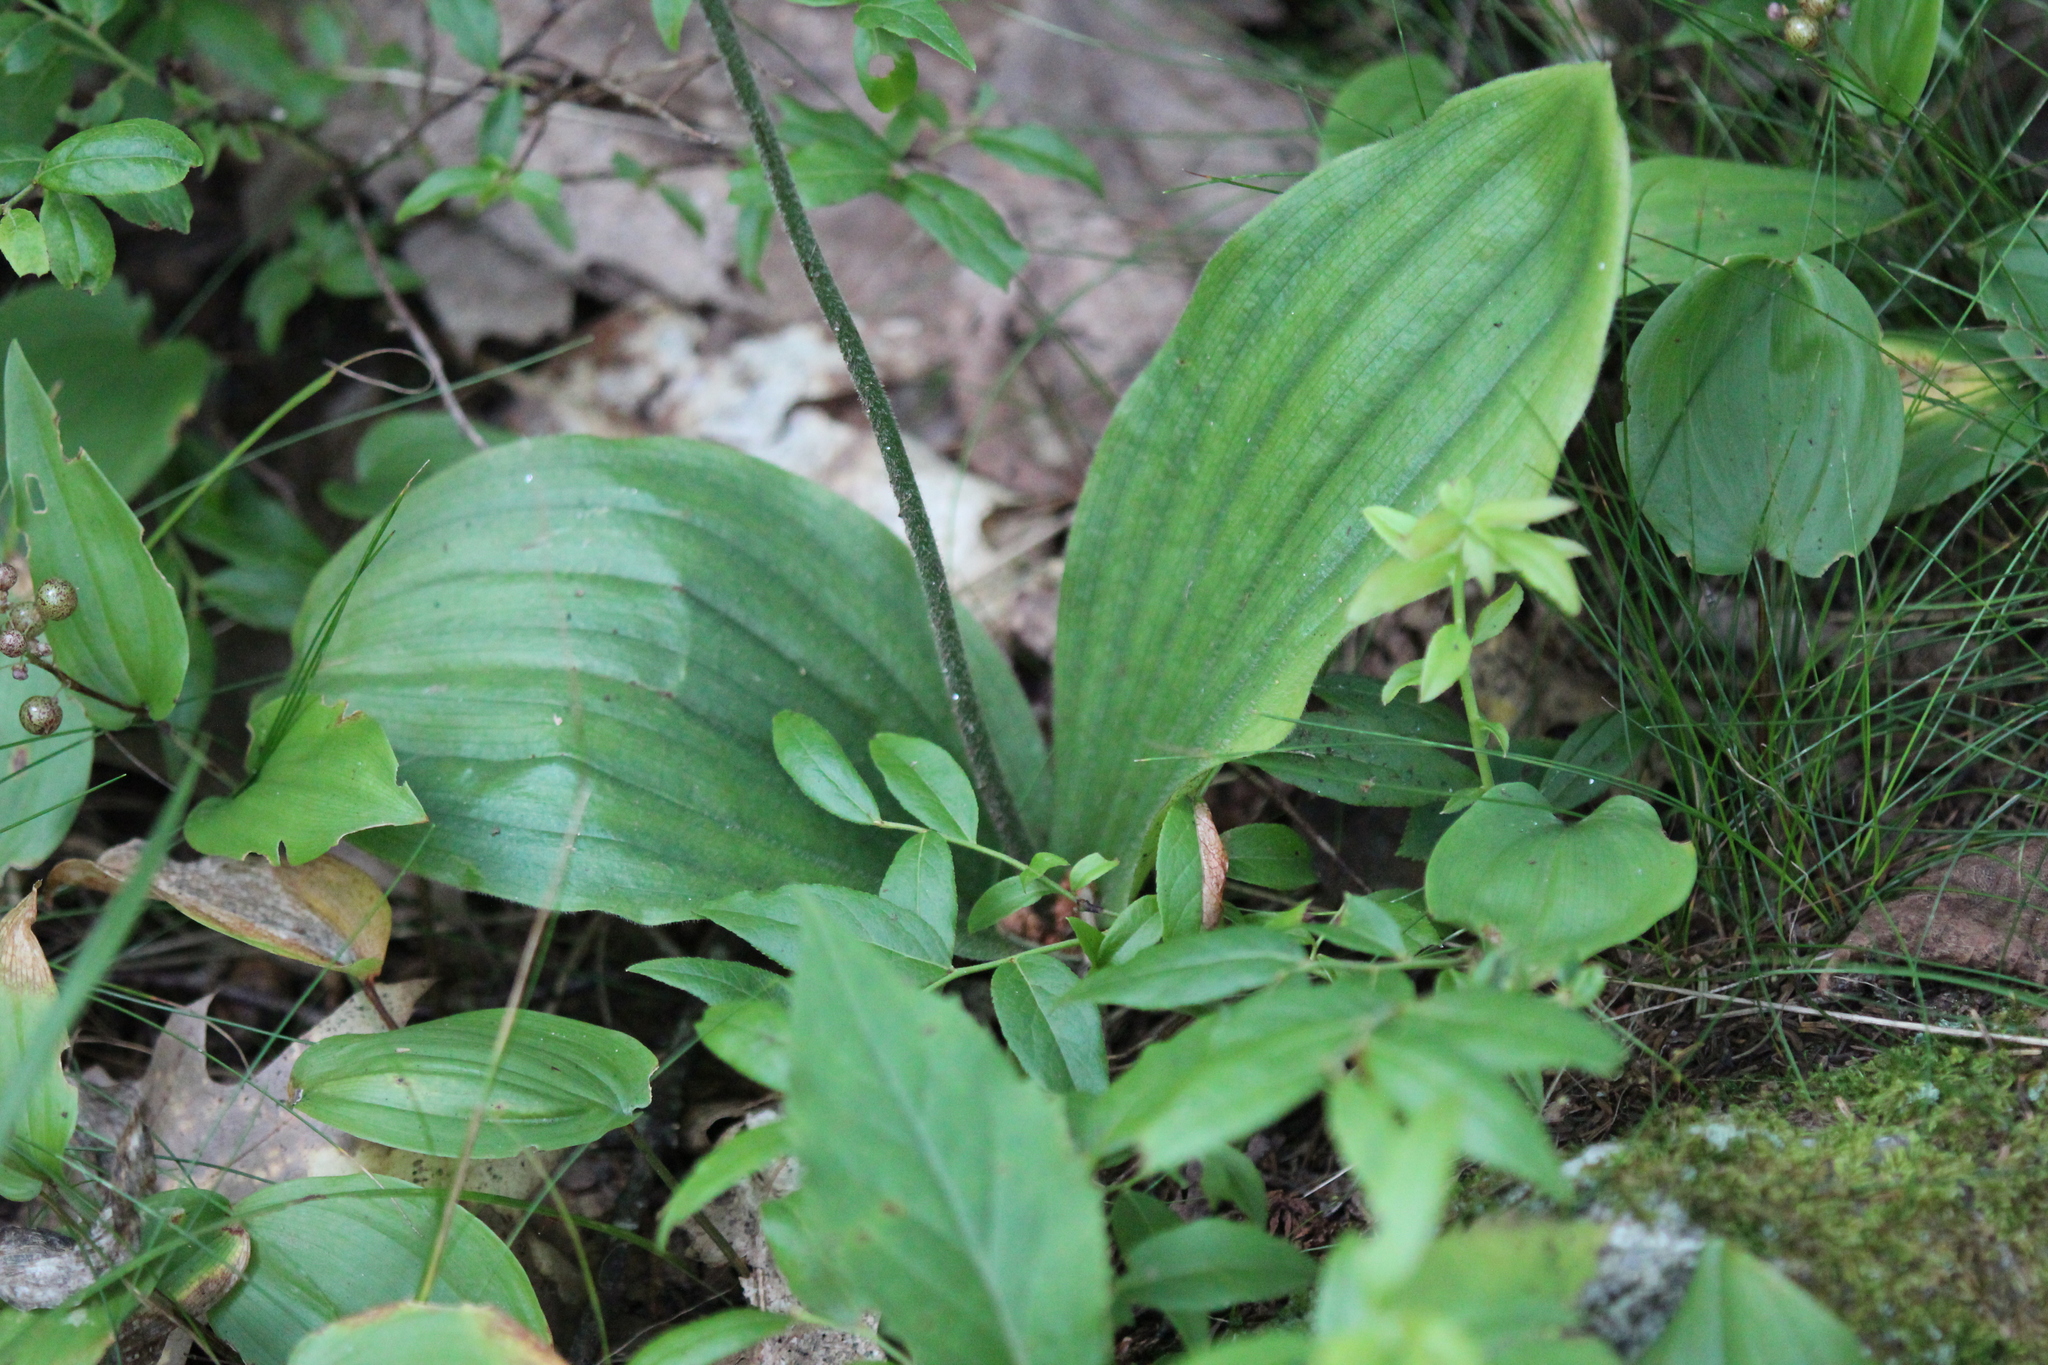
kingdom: Plantae
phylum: Tracheophyta
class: Liliopsida
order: Asparagales
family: Orchidaceae
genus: Cypripedium
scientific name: Cypripedium acaule
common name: Pink lady's-slipper
